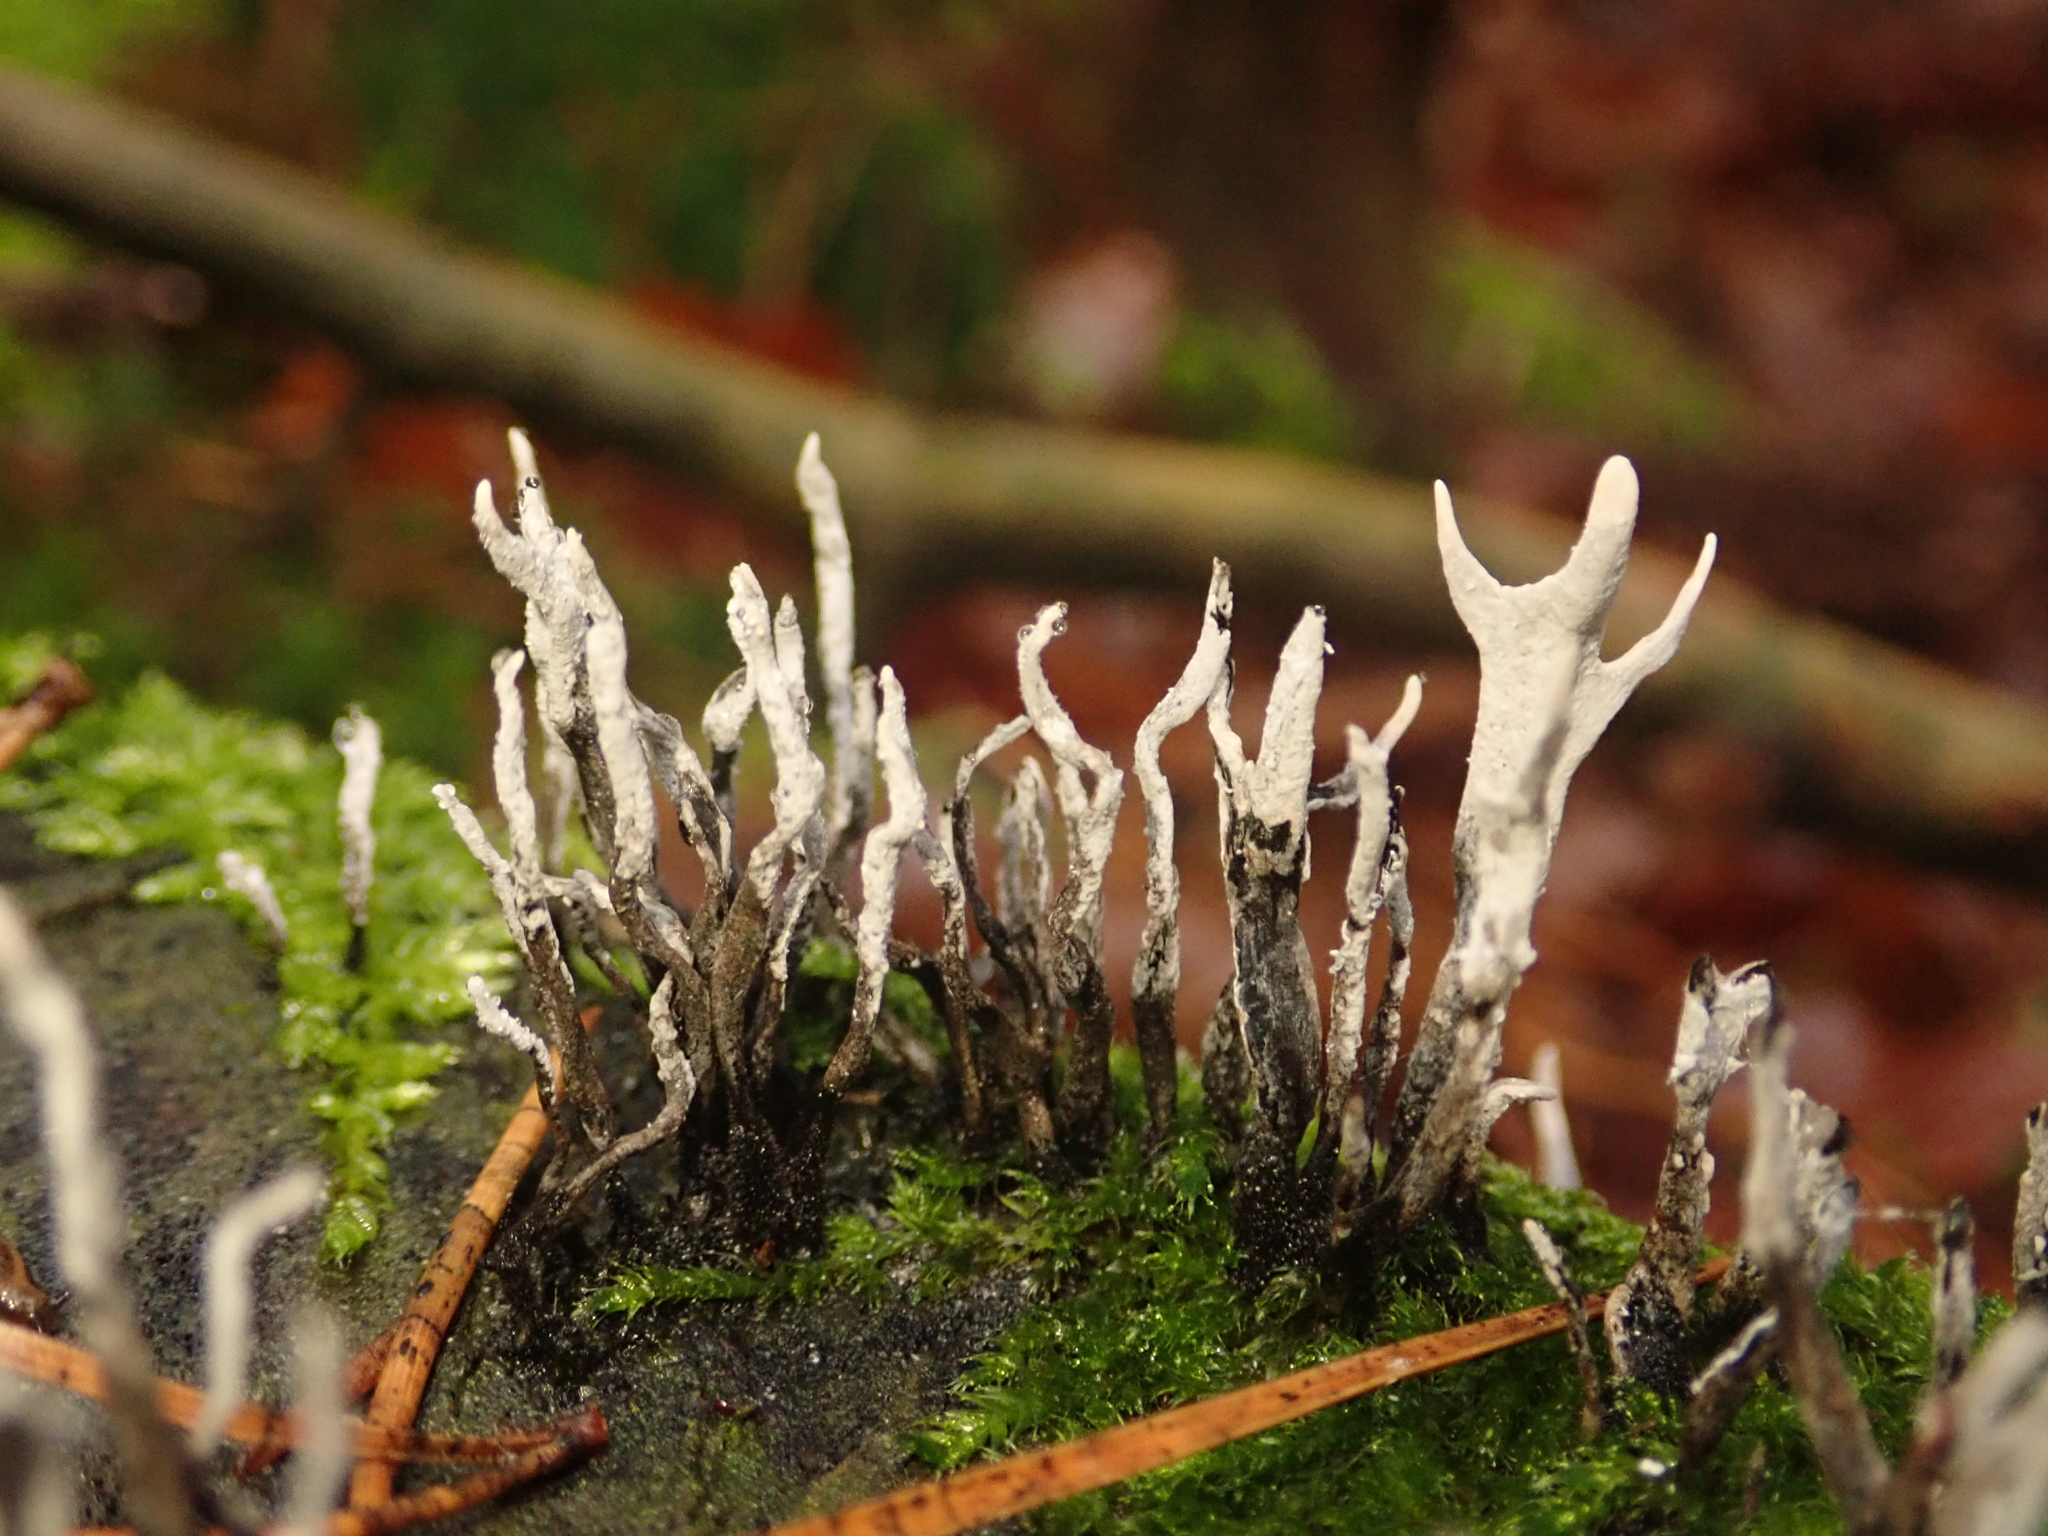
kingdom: Fungi
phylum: Ascomycota
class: Sordariomycetes
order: Xylariales
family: Xylariaceae
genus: Xylaria
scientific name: Xylaria hypoxylon
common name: Candle-snuff fungus
